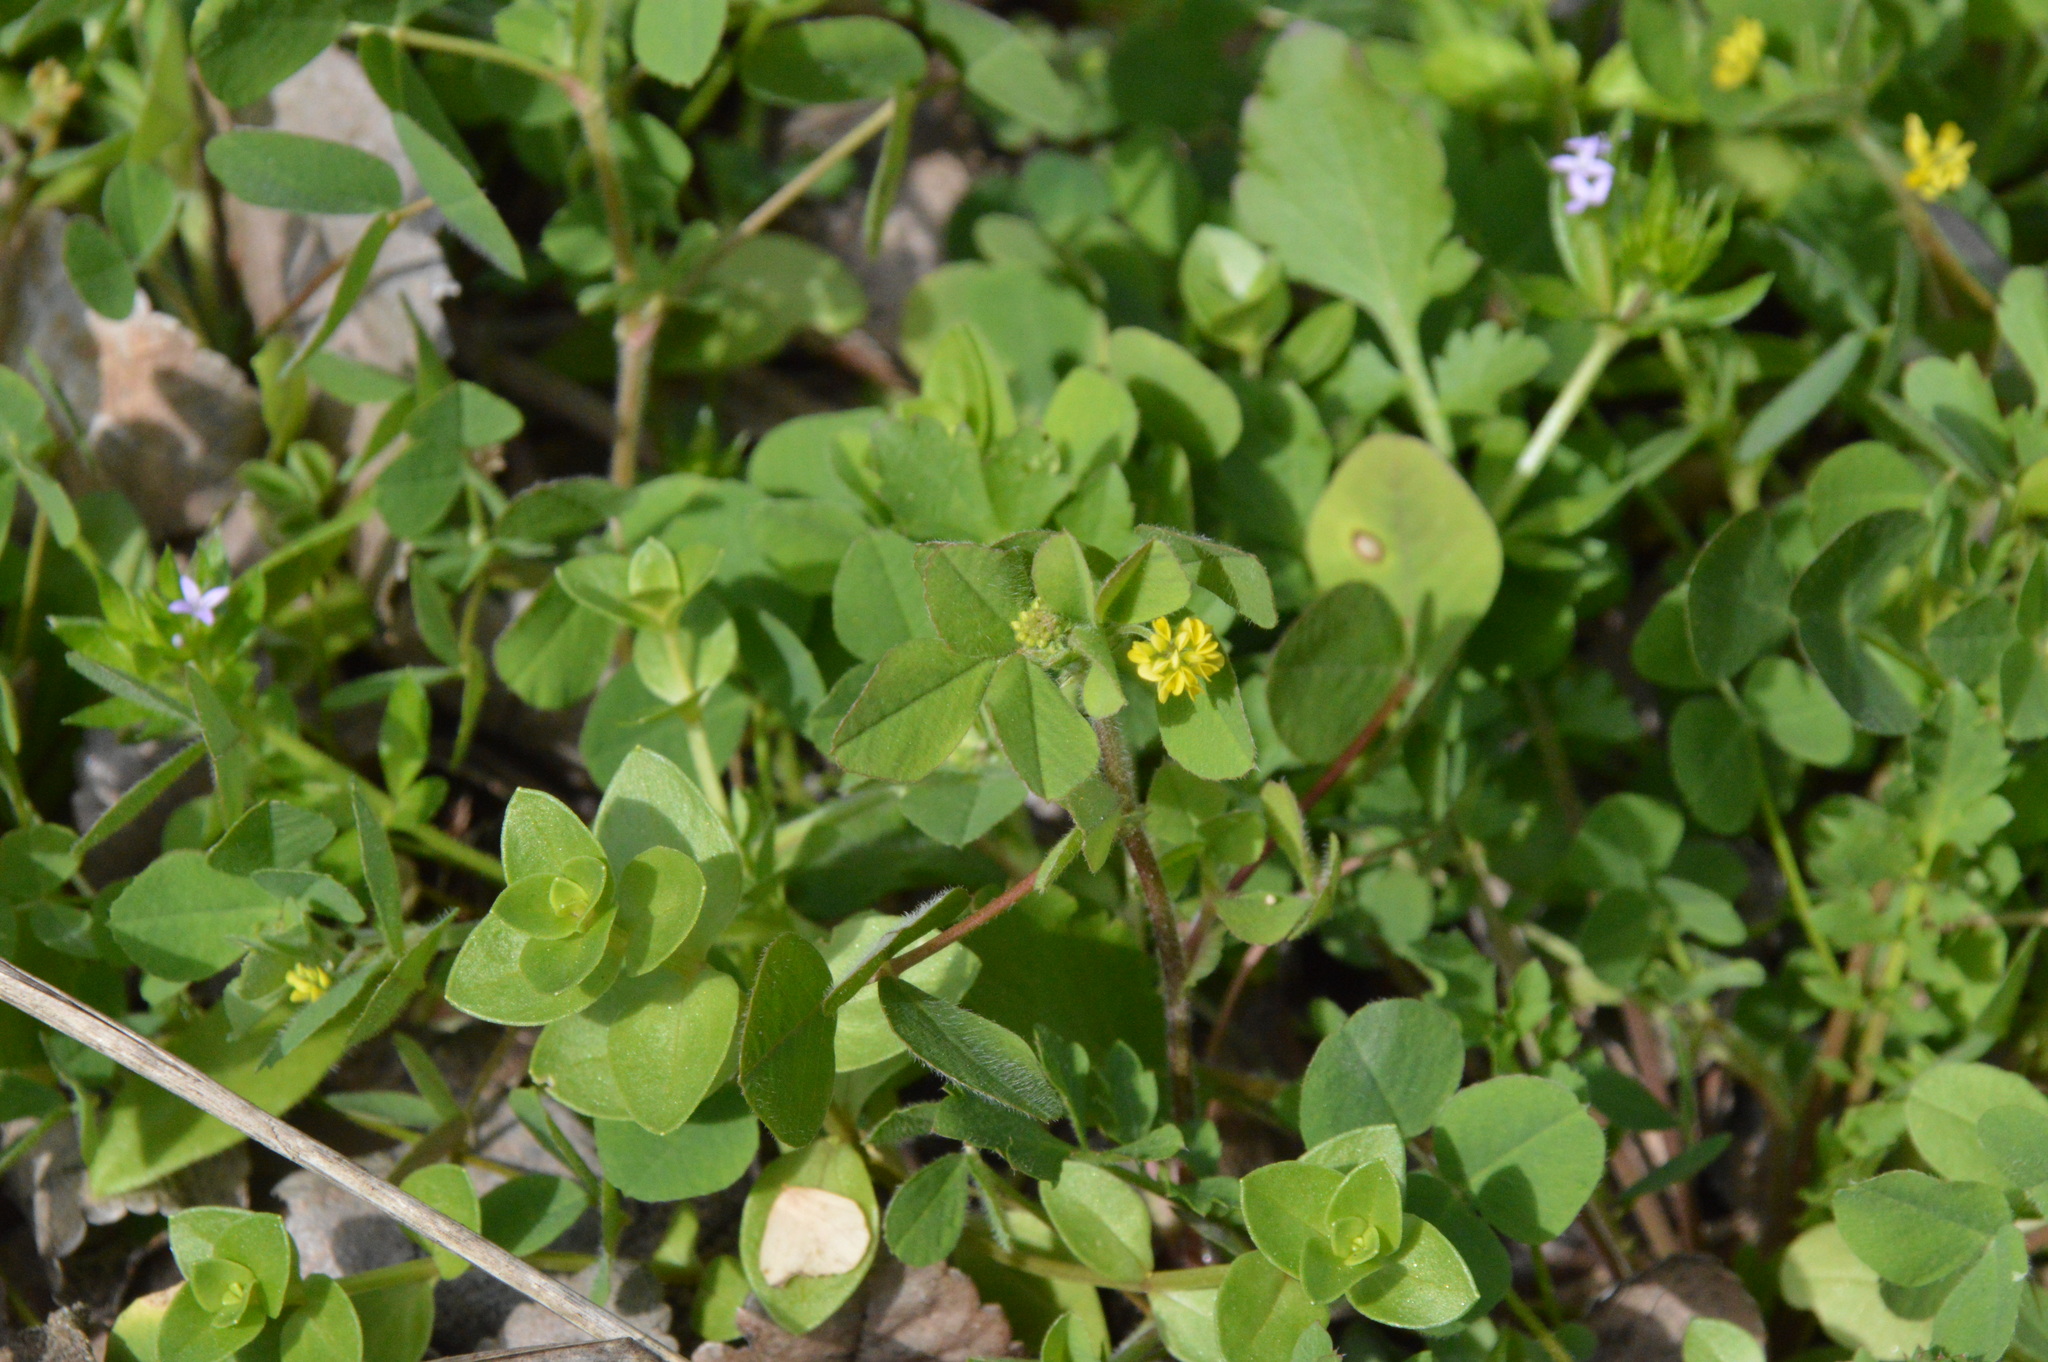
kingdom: Plantae
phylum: Tracheophyta
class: Magnoliopsida
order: Fabales
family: Fabaceae
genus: Medicago
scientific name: Medicago lupulina
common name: Black medick
